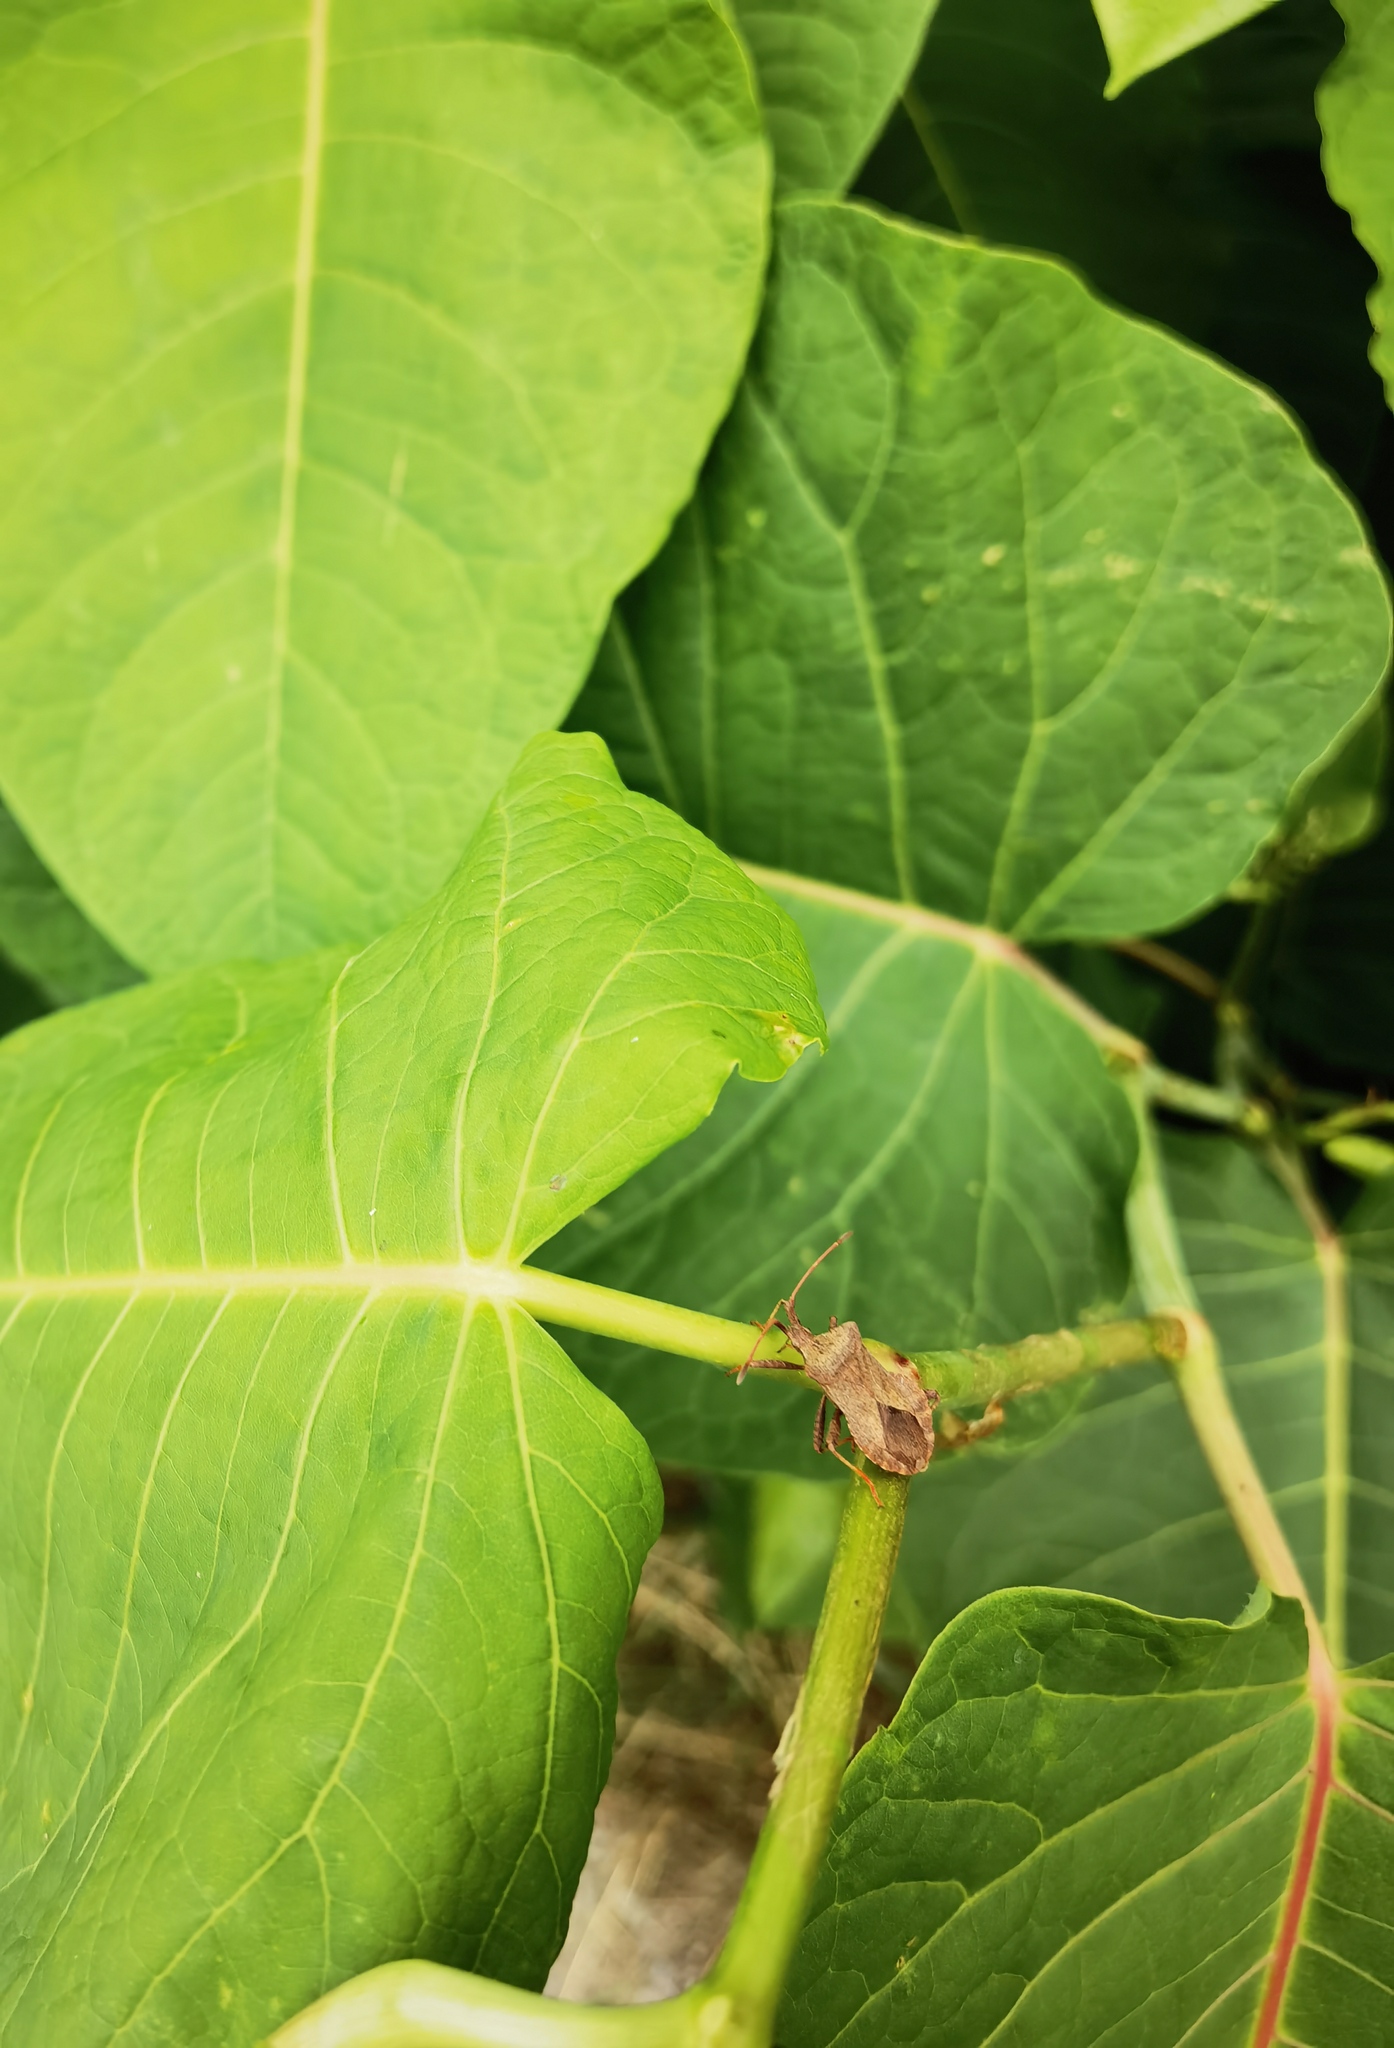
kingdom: Animalia
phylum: Arthropoda
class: Insecta
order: Hemiptera
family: Coreidae
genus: Coreus
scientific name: Coreus marginatus
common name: Dock bug
